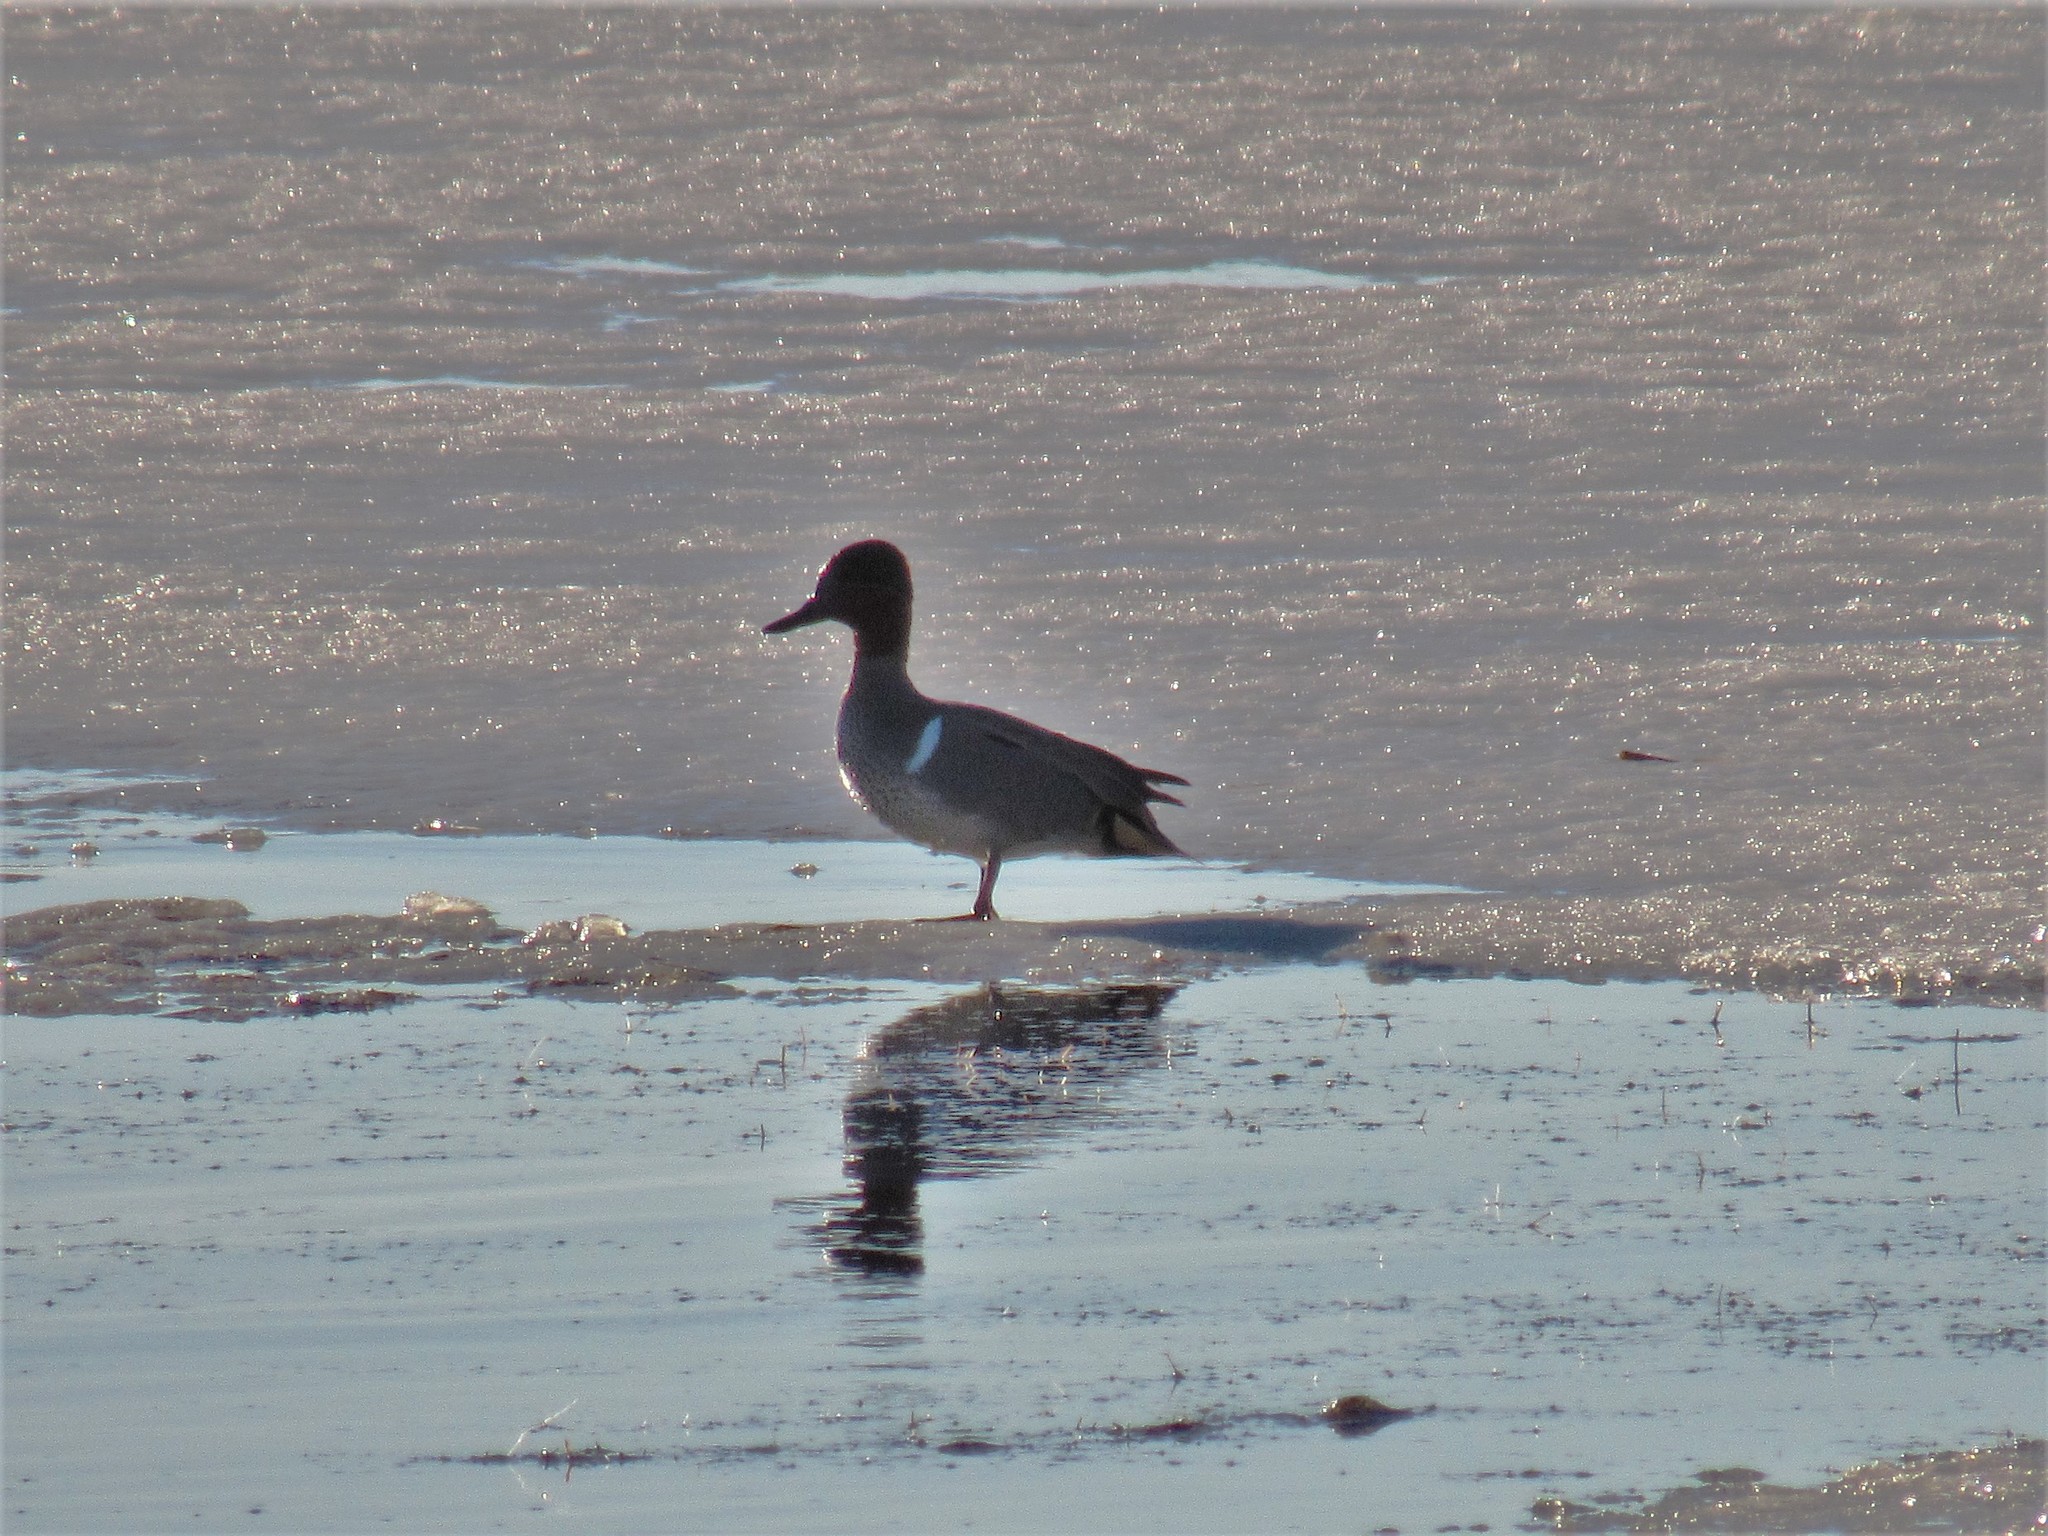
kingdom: Animalia
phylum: Chordata
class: Aves
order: Anseriformes
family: Anatidae
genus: Anas
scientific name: Anas crecca
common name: Eurasian teal
